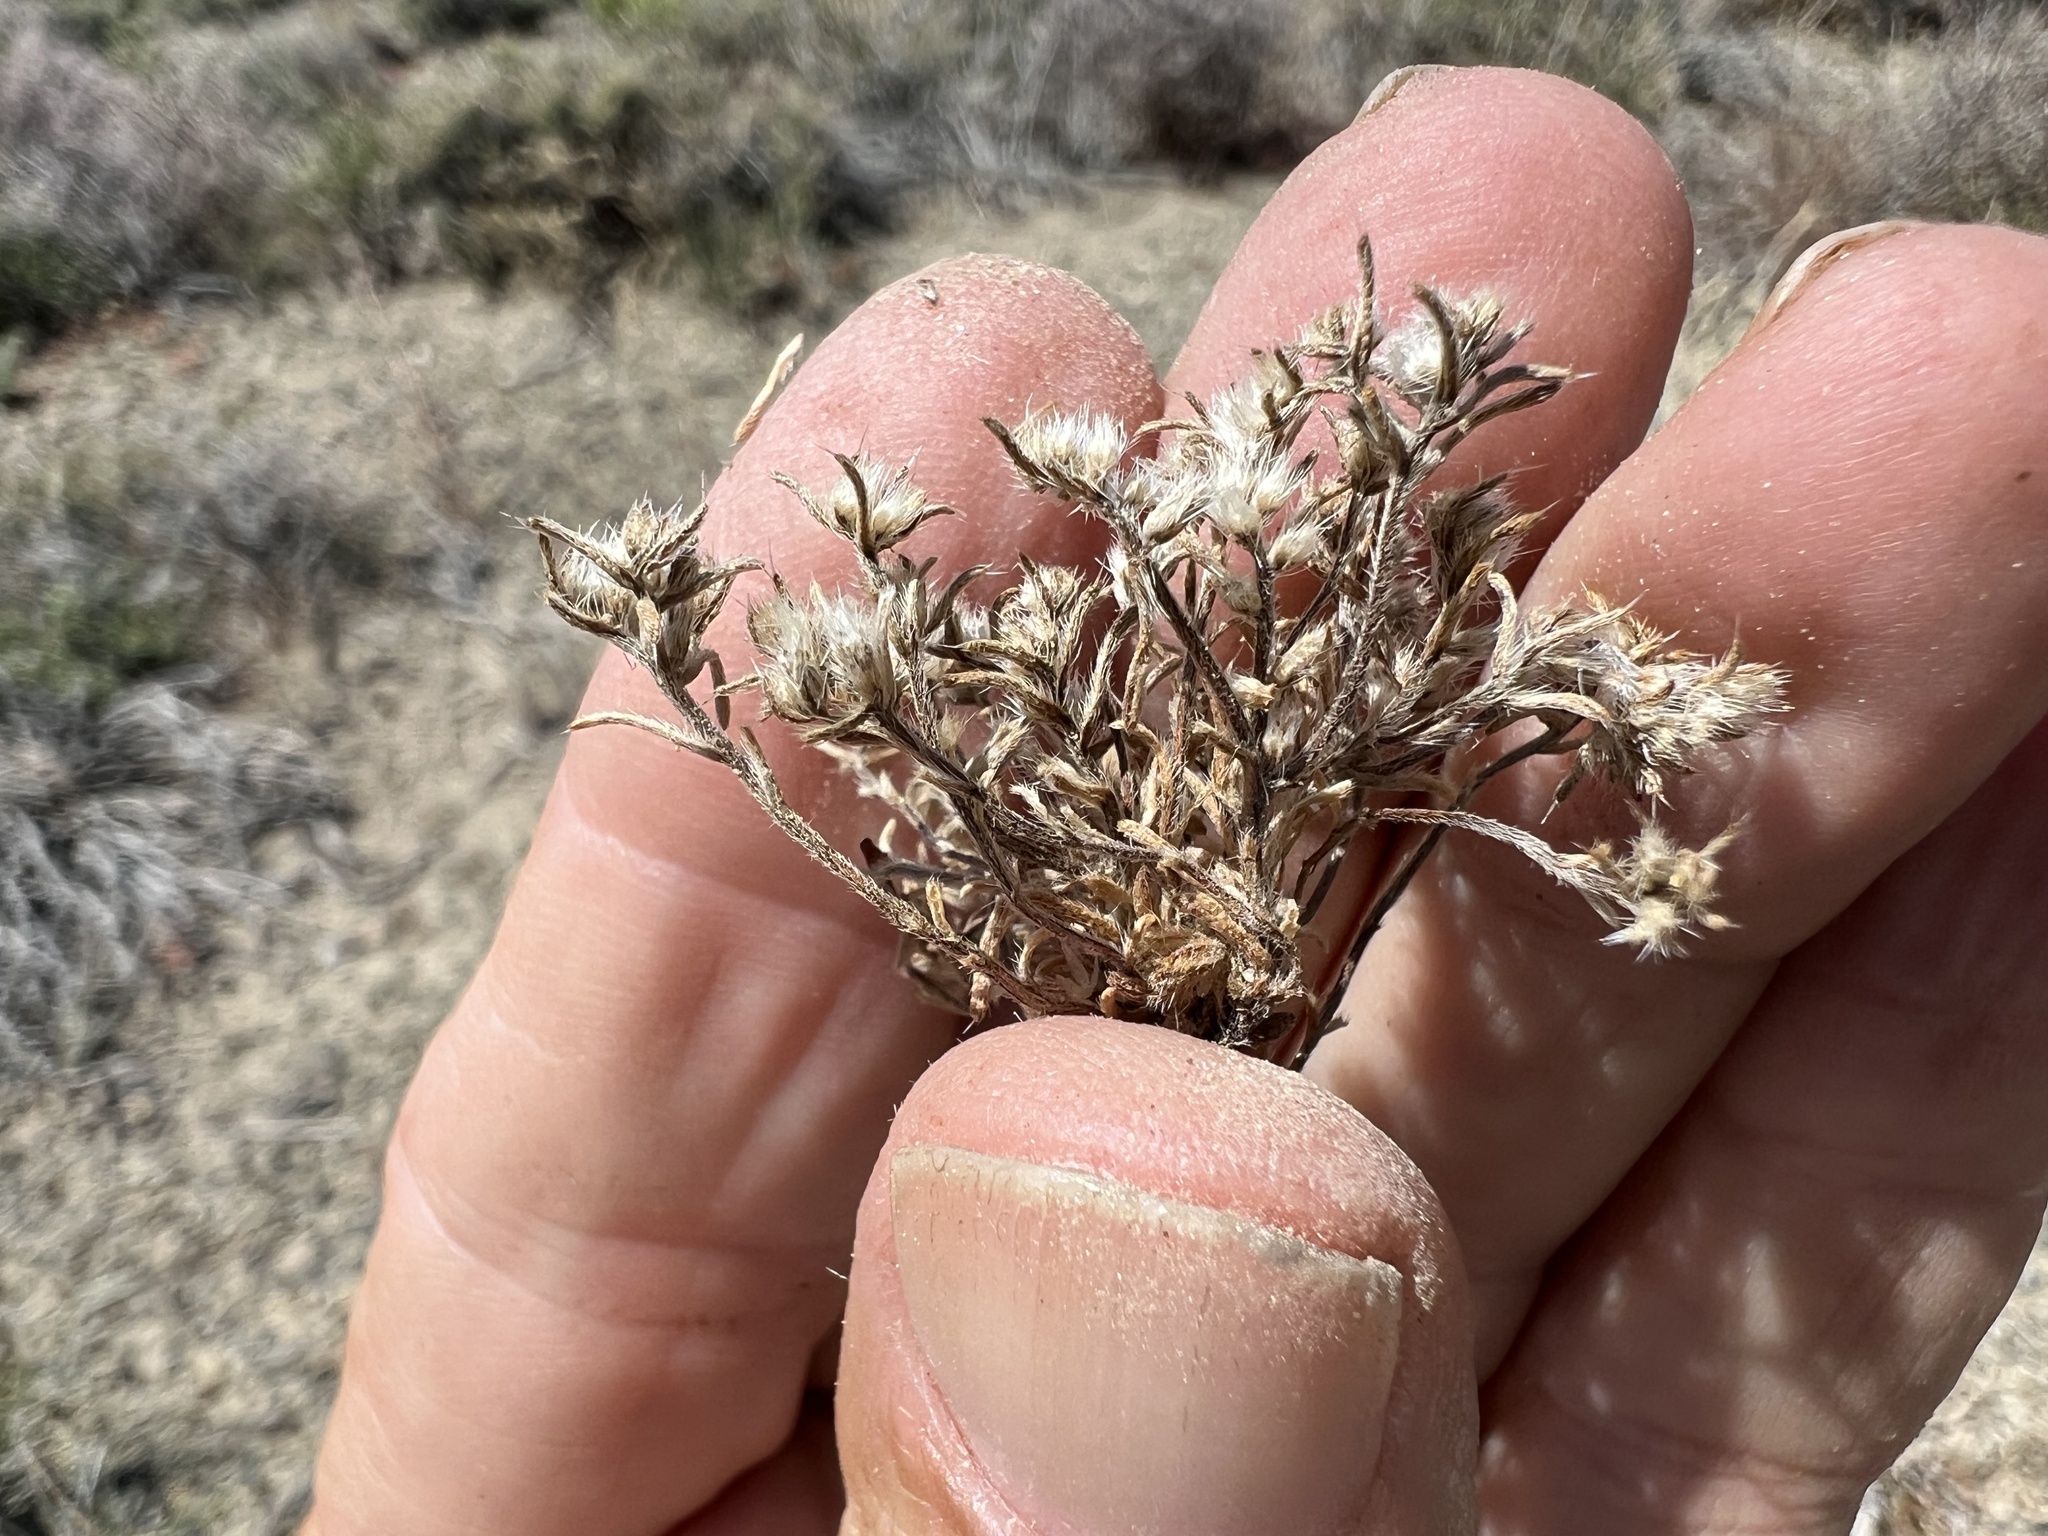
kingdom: Plantae
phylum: Tracheophyta
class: Magnoliopsida
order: Boraginales
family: Boraginaceae
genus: Greeneocharis
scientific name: Greeneocharis circumscissa
